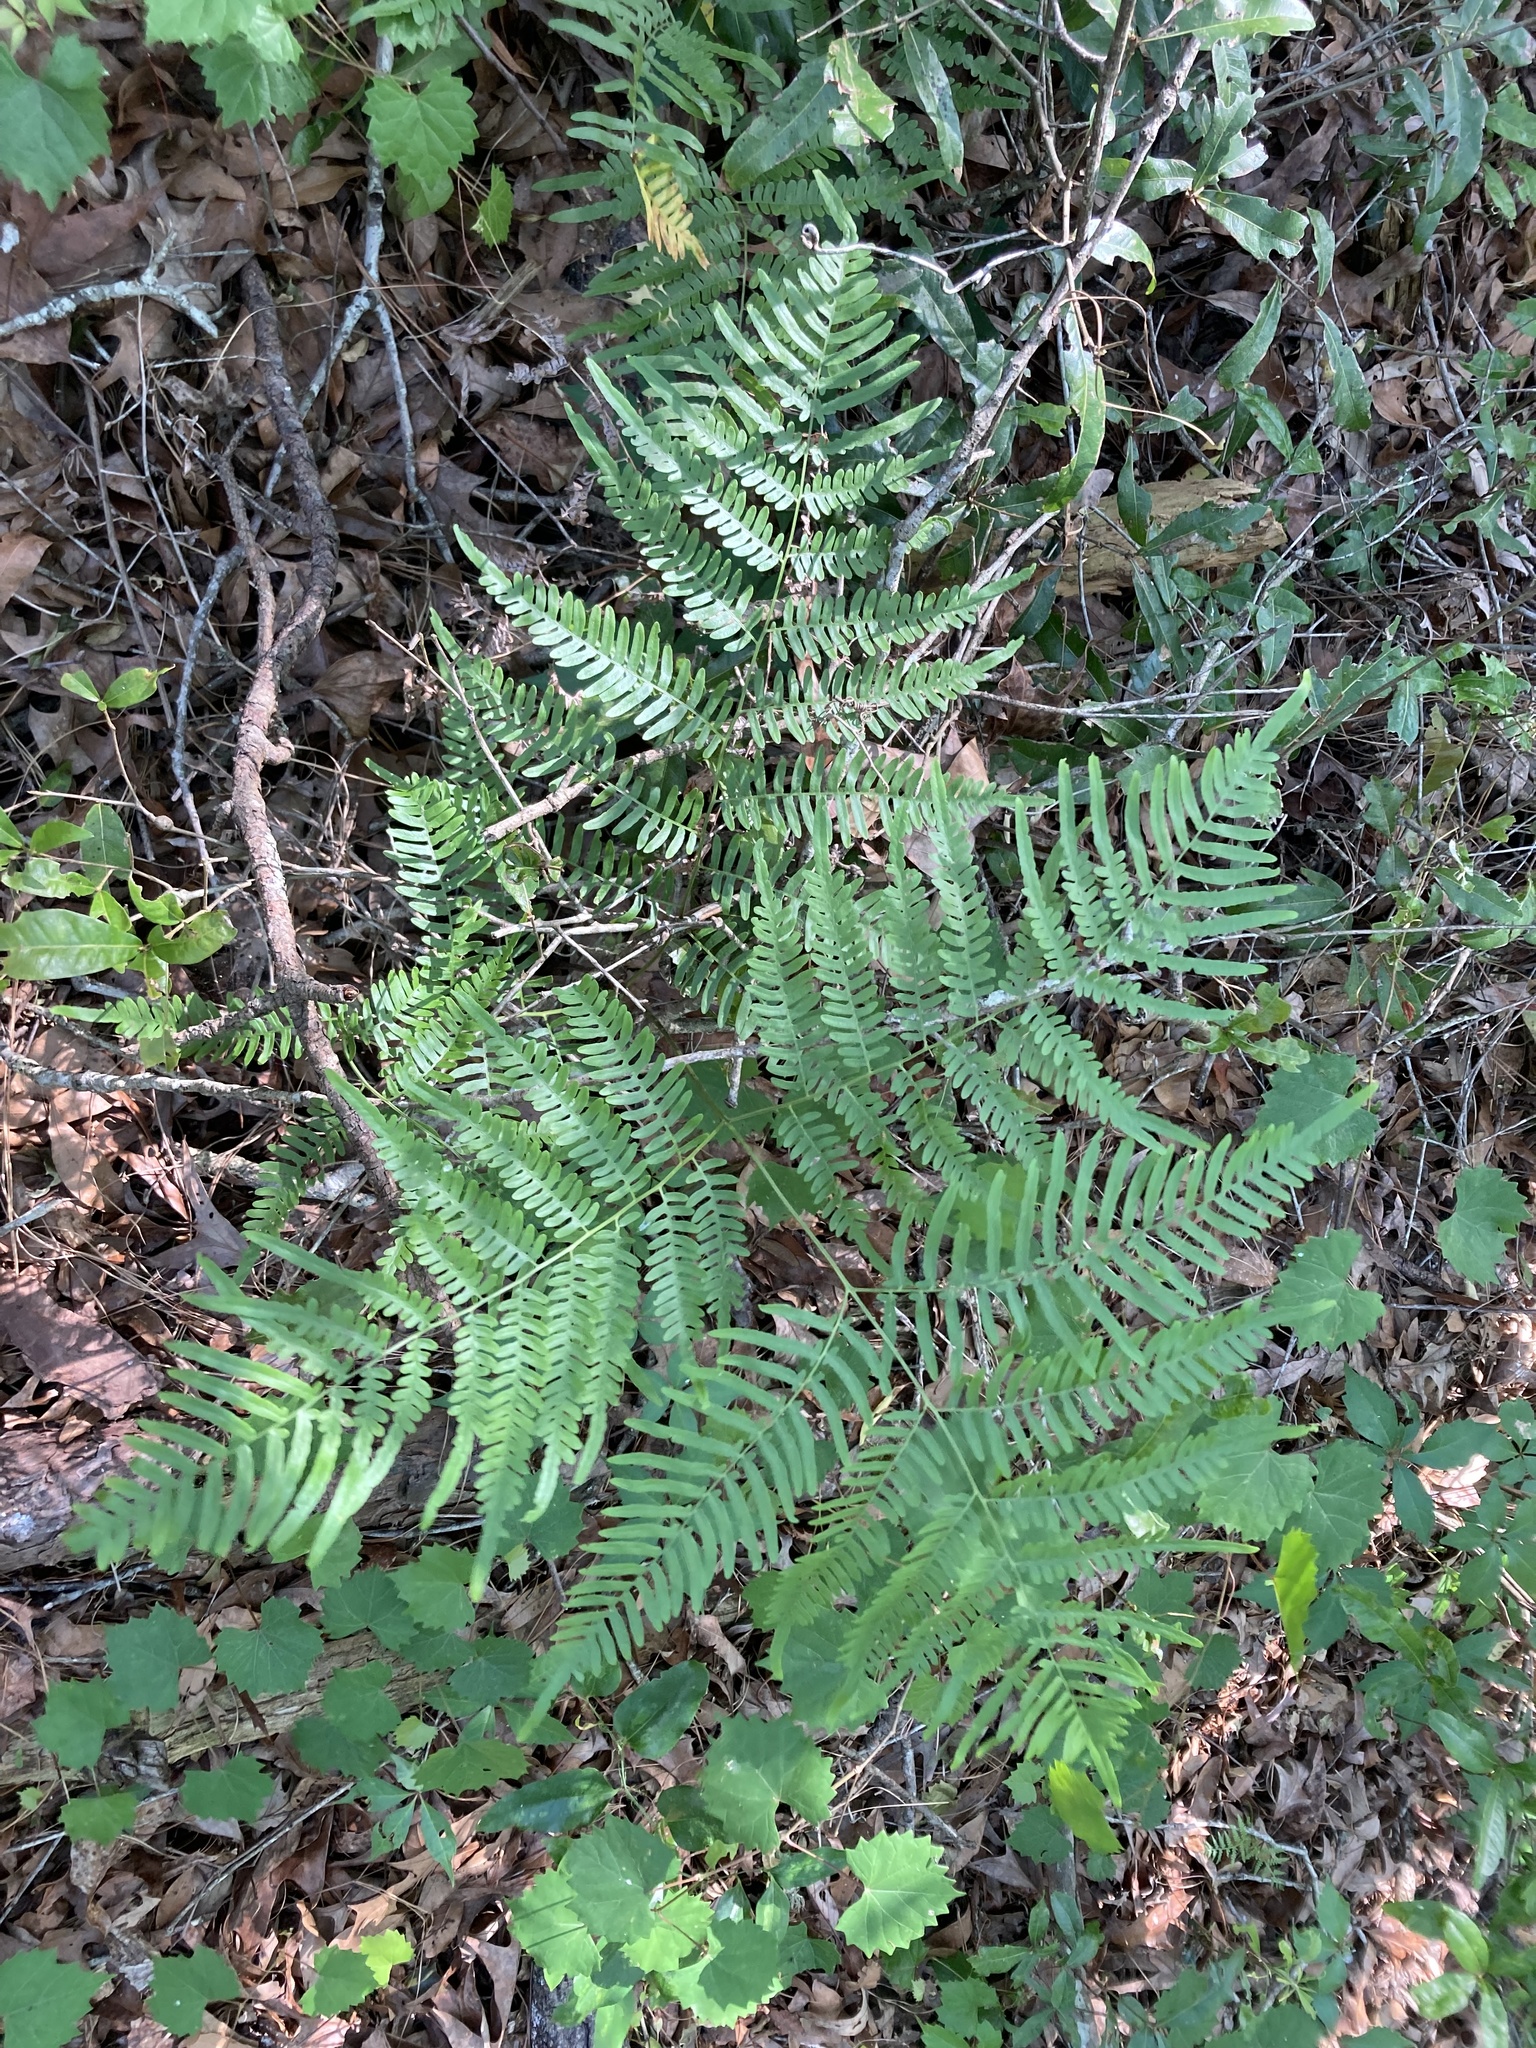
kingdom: Plantae
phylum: Tracheophyta
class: Polypodiopsida
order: Polypodiales
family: Dennstaedtiaceae
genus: Pteridium
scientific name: Pteridium
